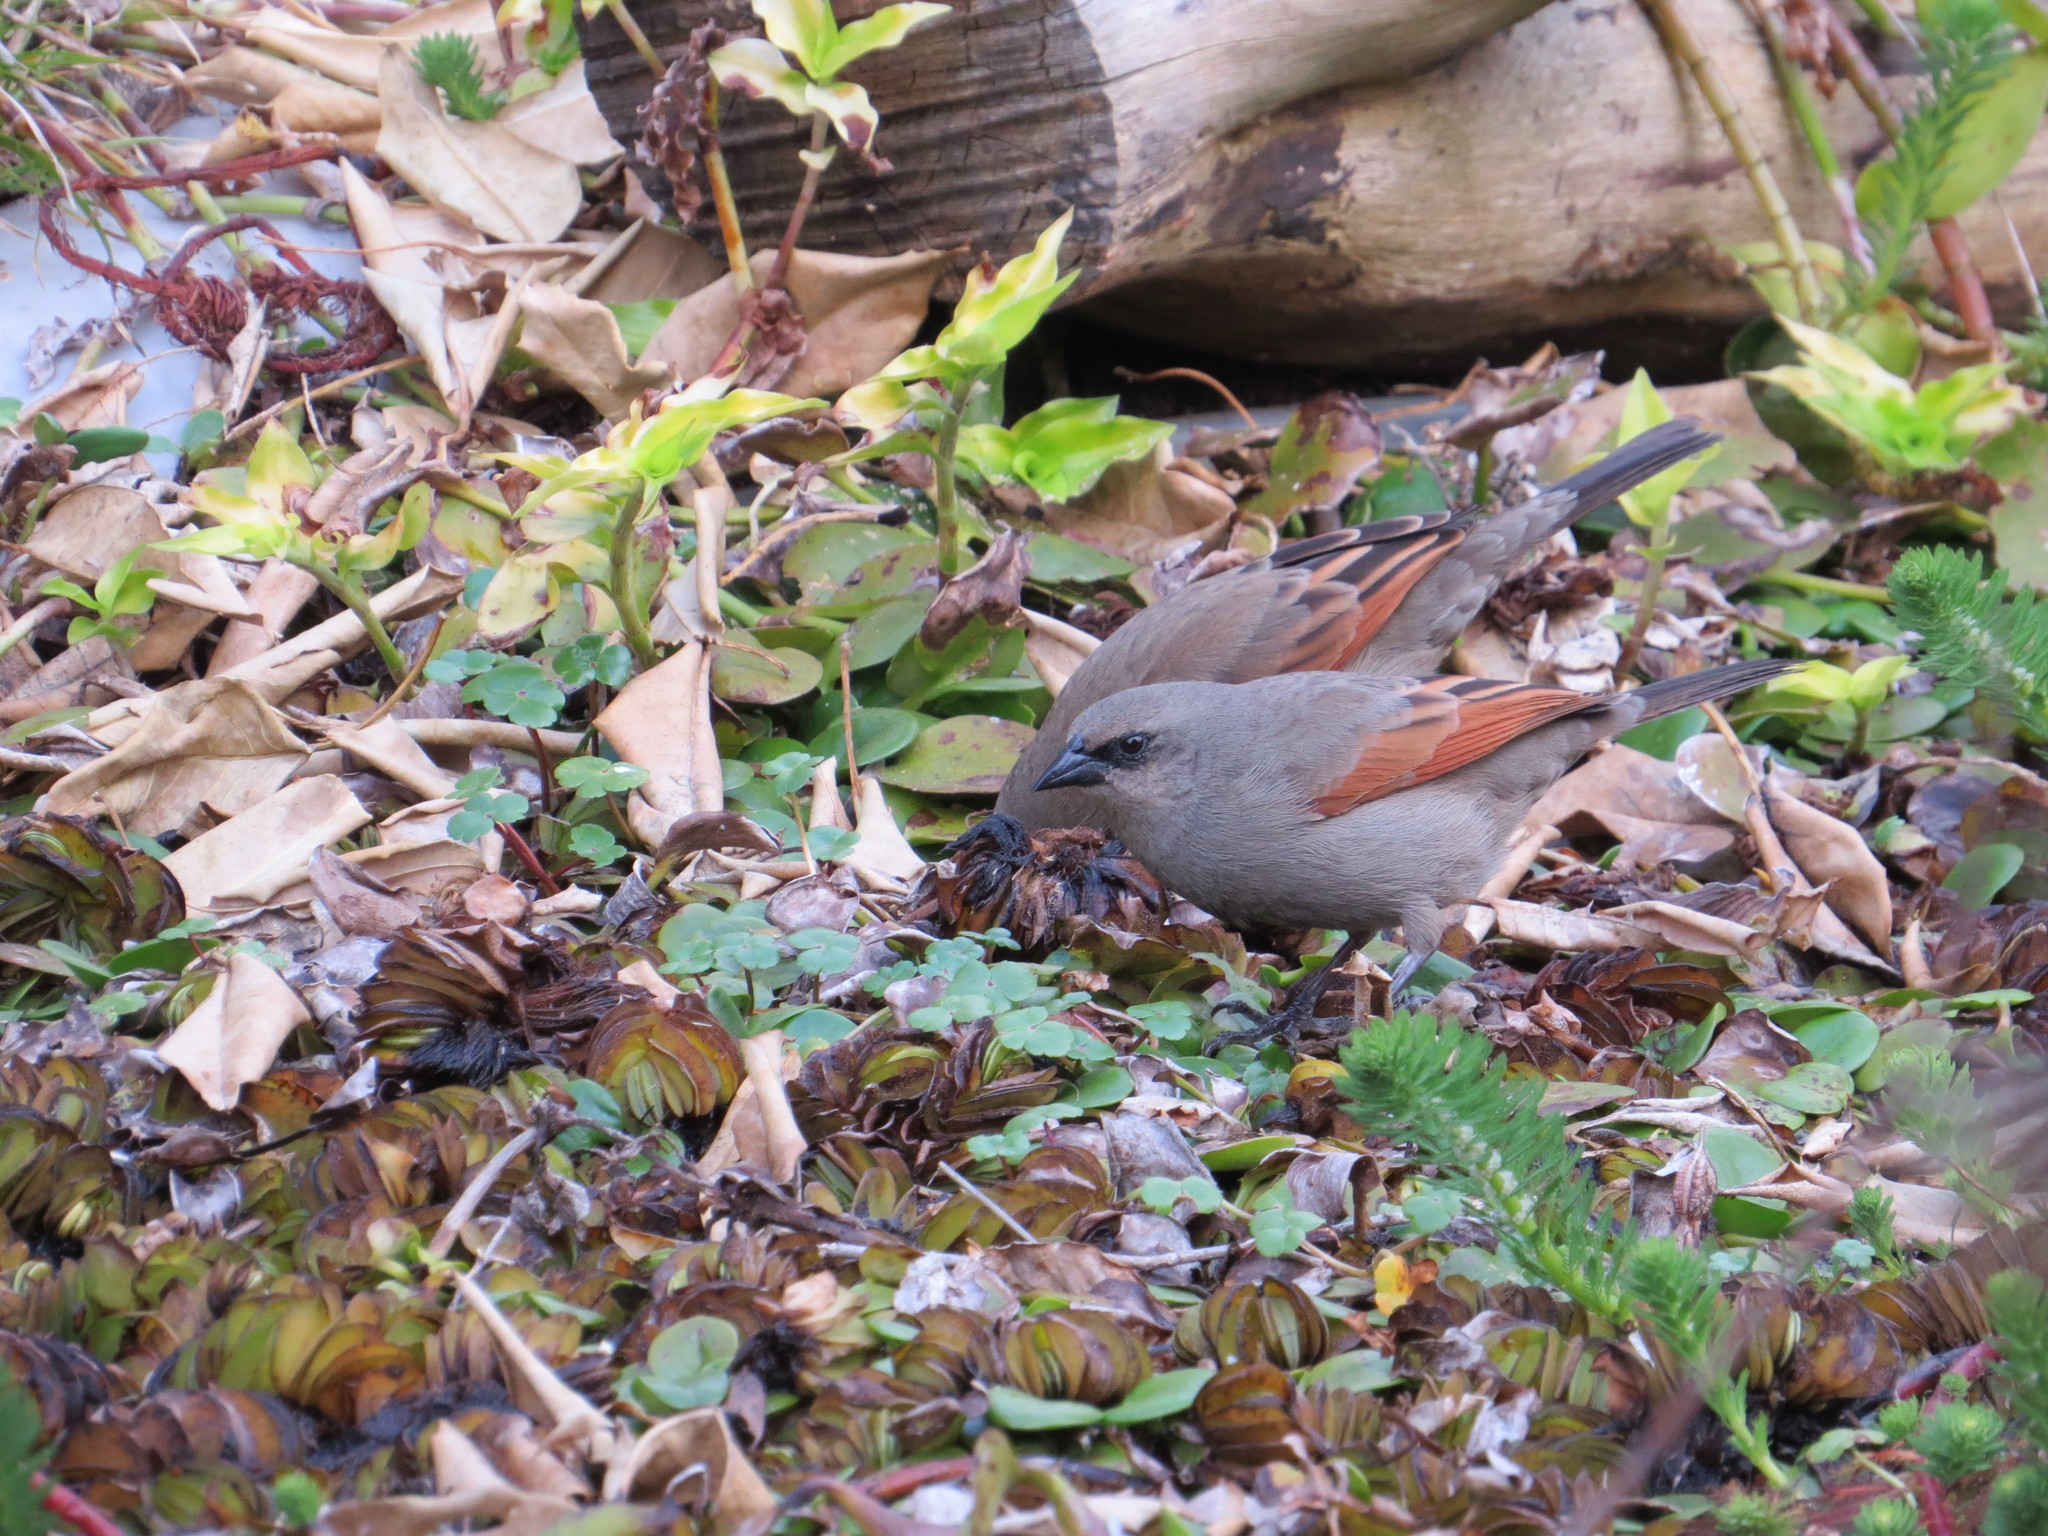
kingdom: Animalia
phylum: Chordata
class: Aves
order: Passeriformes
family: Icteridae
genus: Agelaioides
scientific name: Agelaioides badius
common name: Baywing
